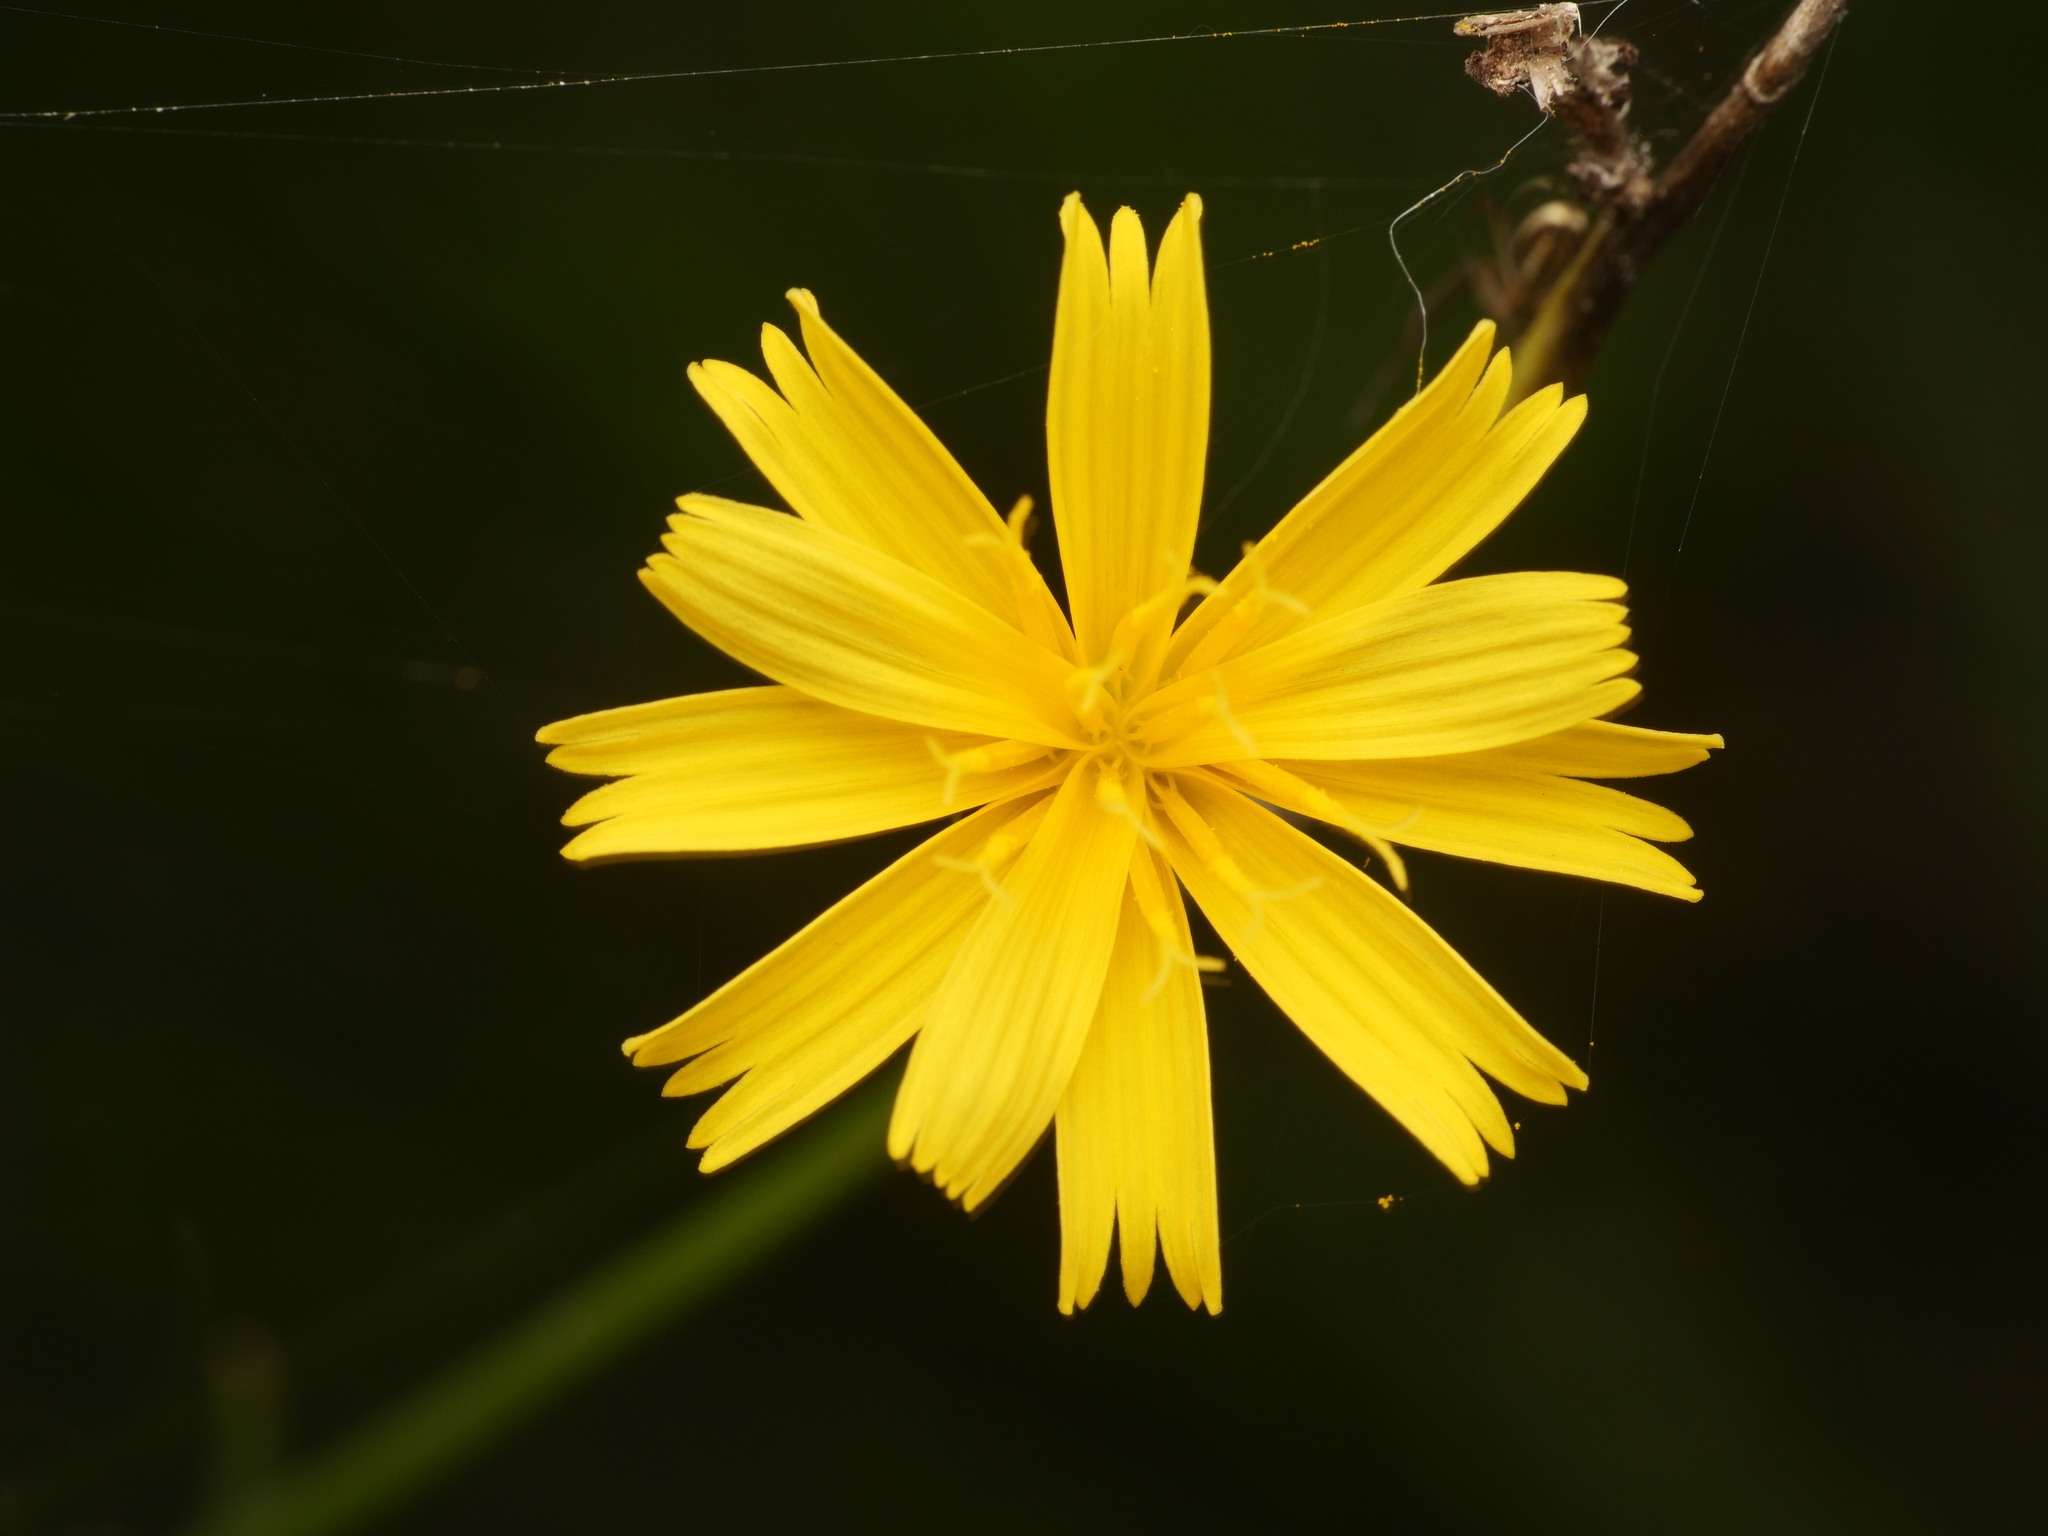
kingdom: Plantae
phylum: Tracheophyta
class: Magnoliopsida
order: Asterales
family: Asteraceae
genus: Lapsana
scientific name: Lapsana communis
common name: Nipplewort
